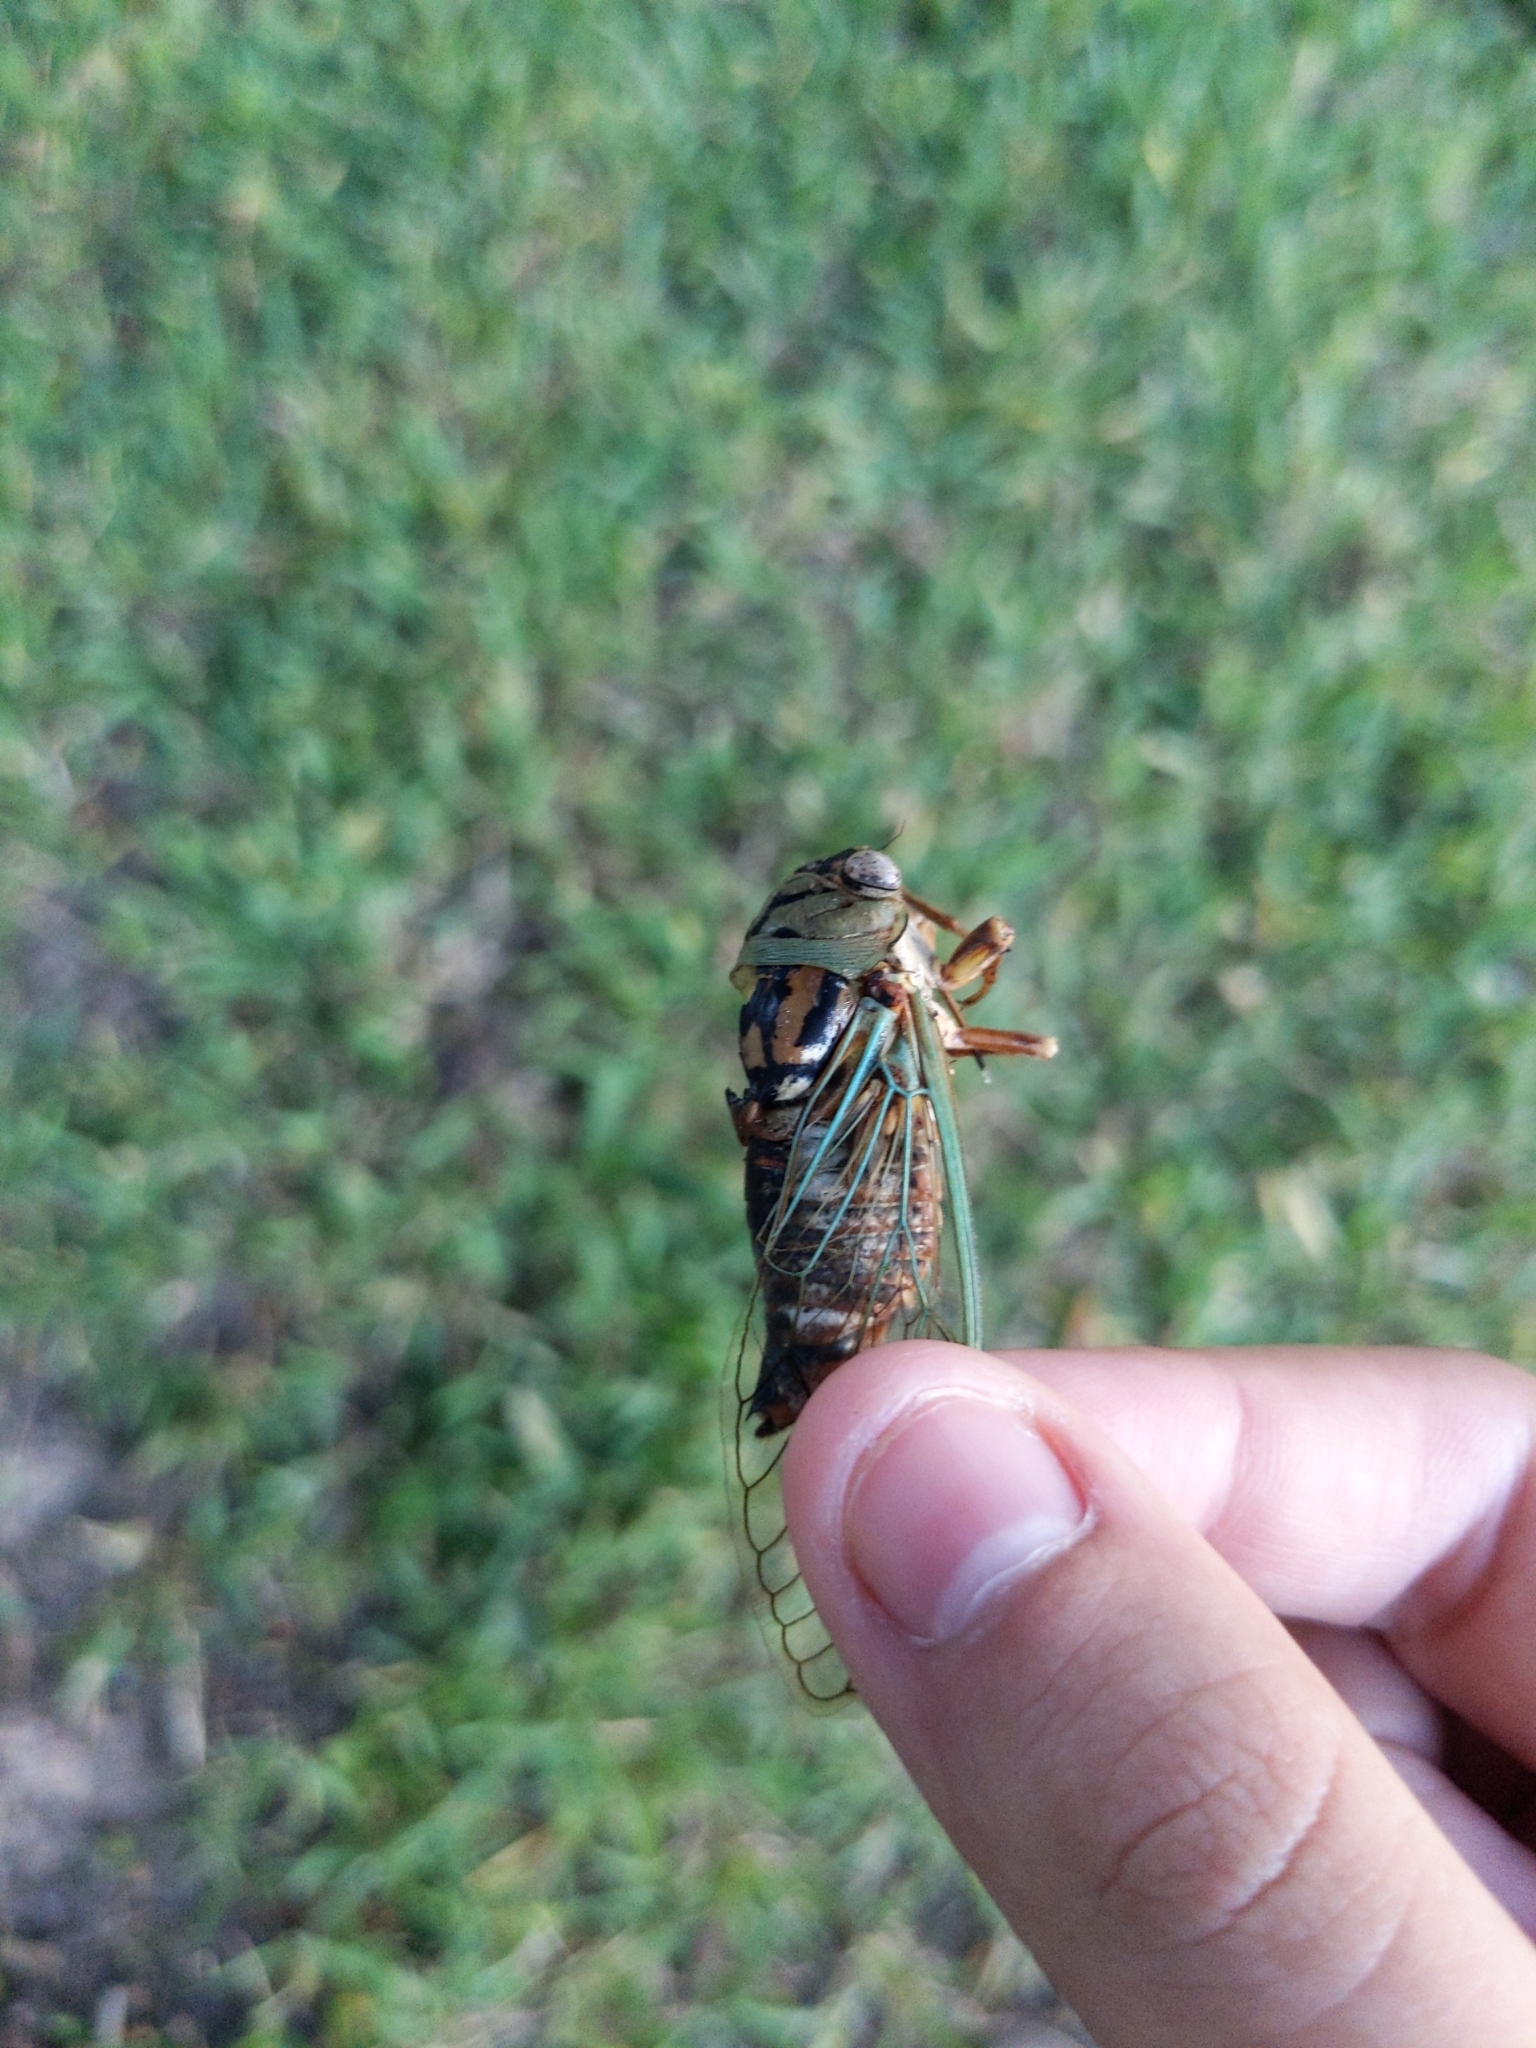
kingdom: Animalia
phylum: Arthropoda
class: Insecta
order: Hemiptera
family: Cicadidae
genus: Megatibicen
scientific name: Megatibicen resh
